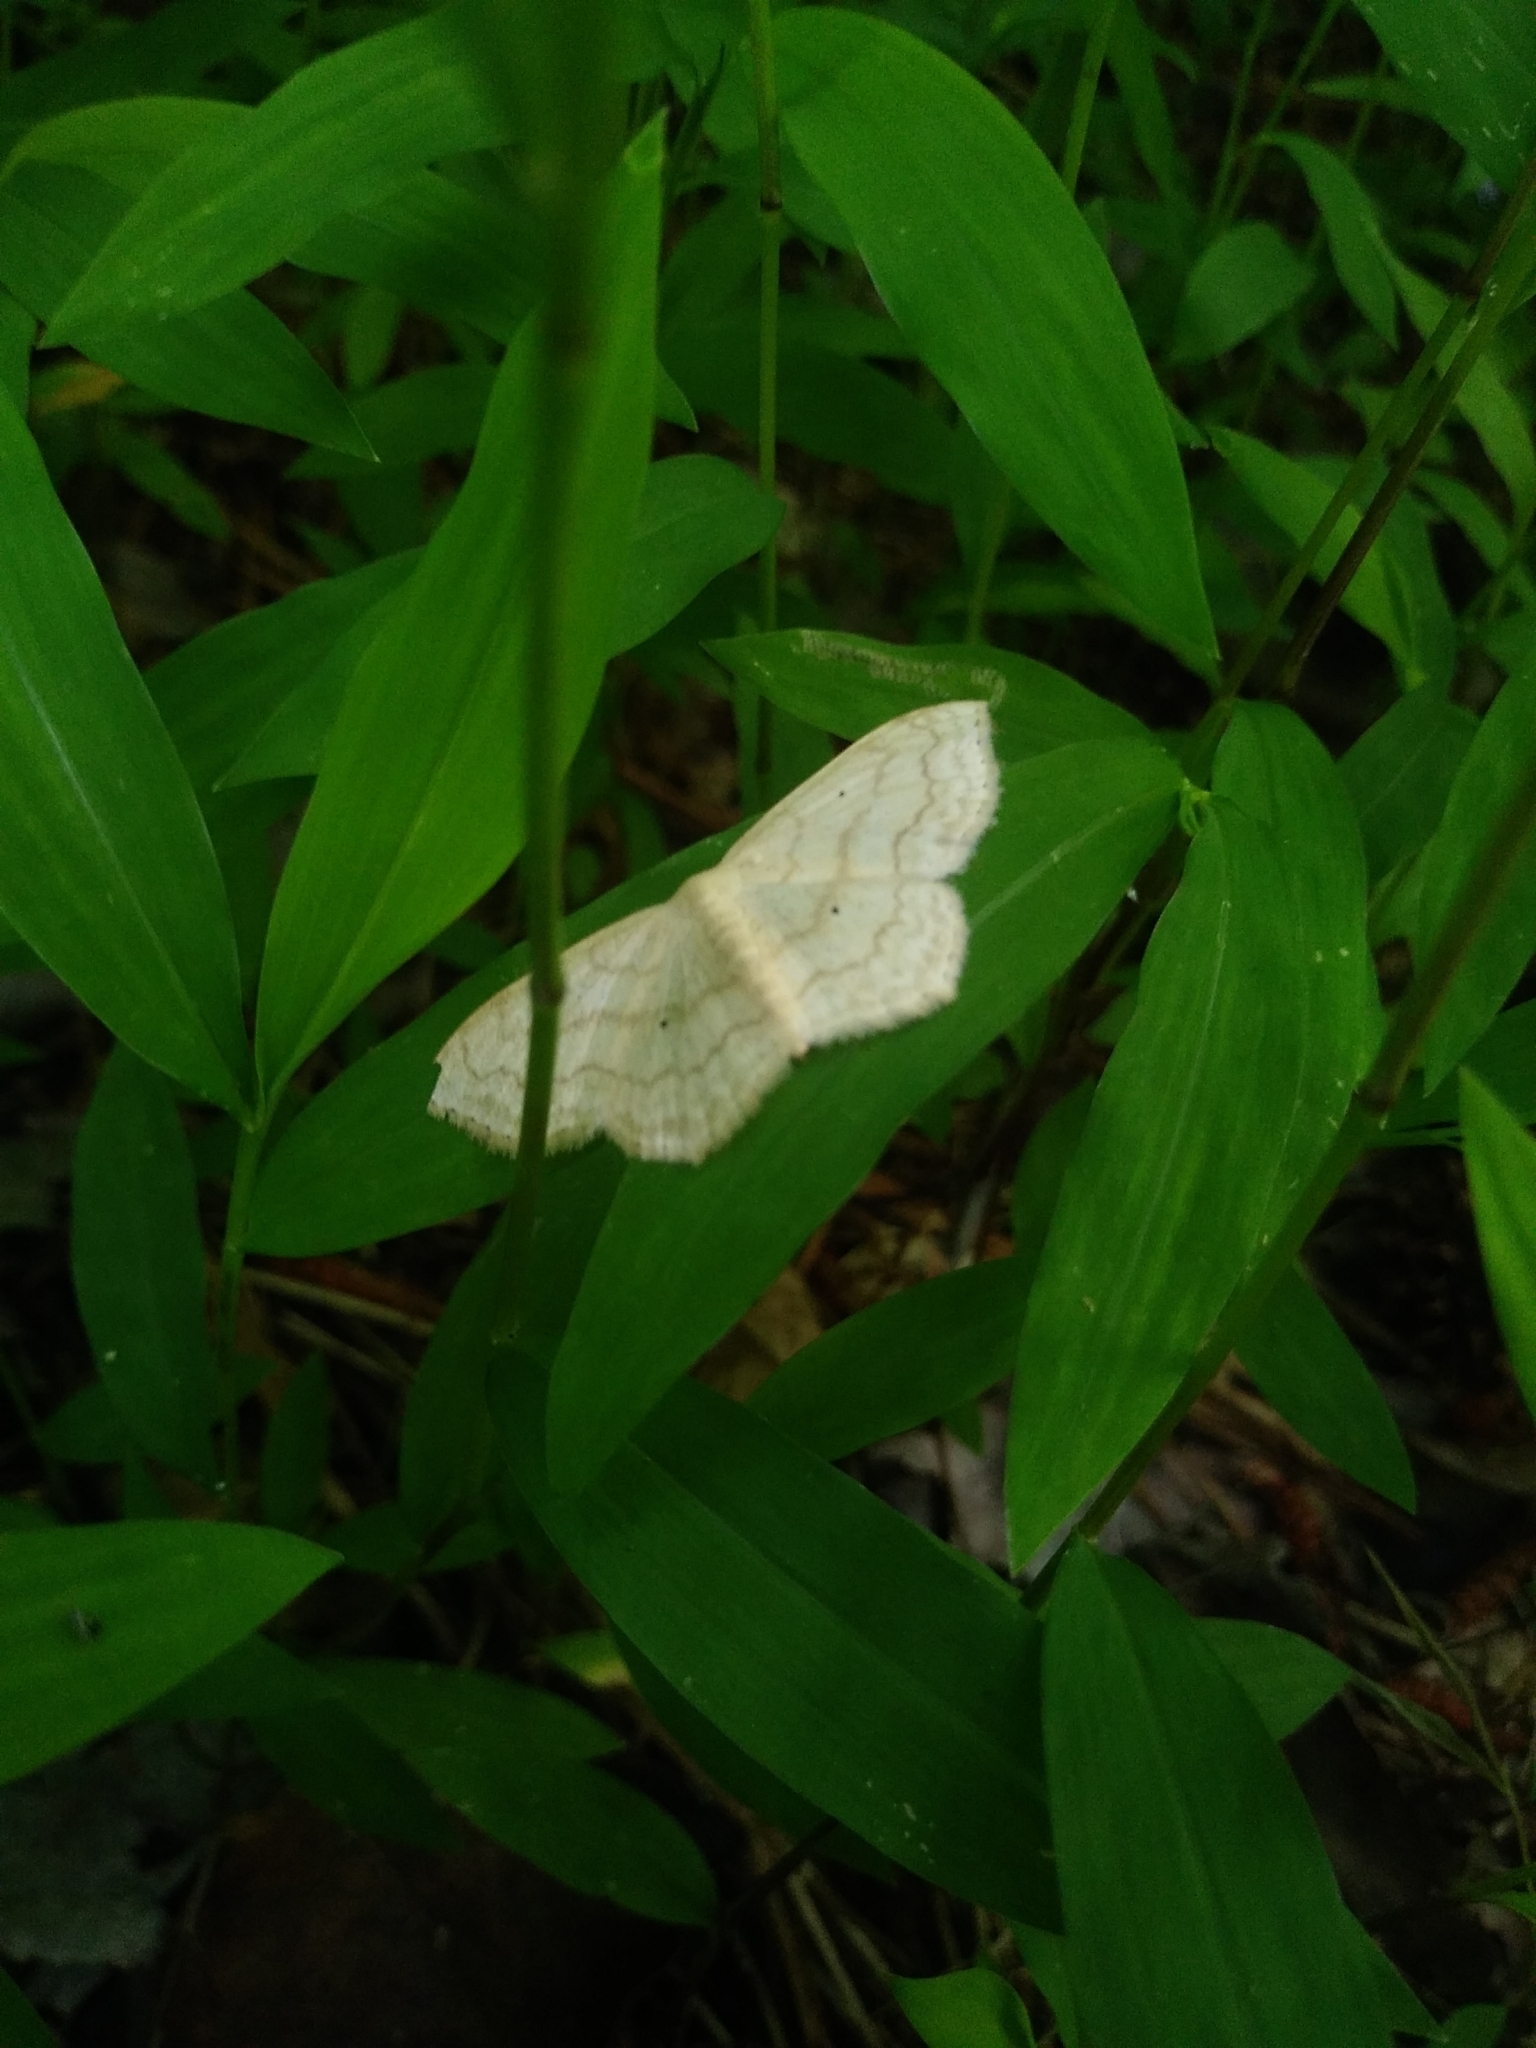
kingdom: Animalia
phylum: Arthropoda
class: Insecta
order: Lepidoptera
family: Geometridae
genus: Scopula
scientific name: Scopula limboundata
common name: Large lace border
